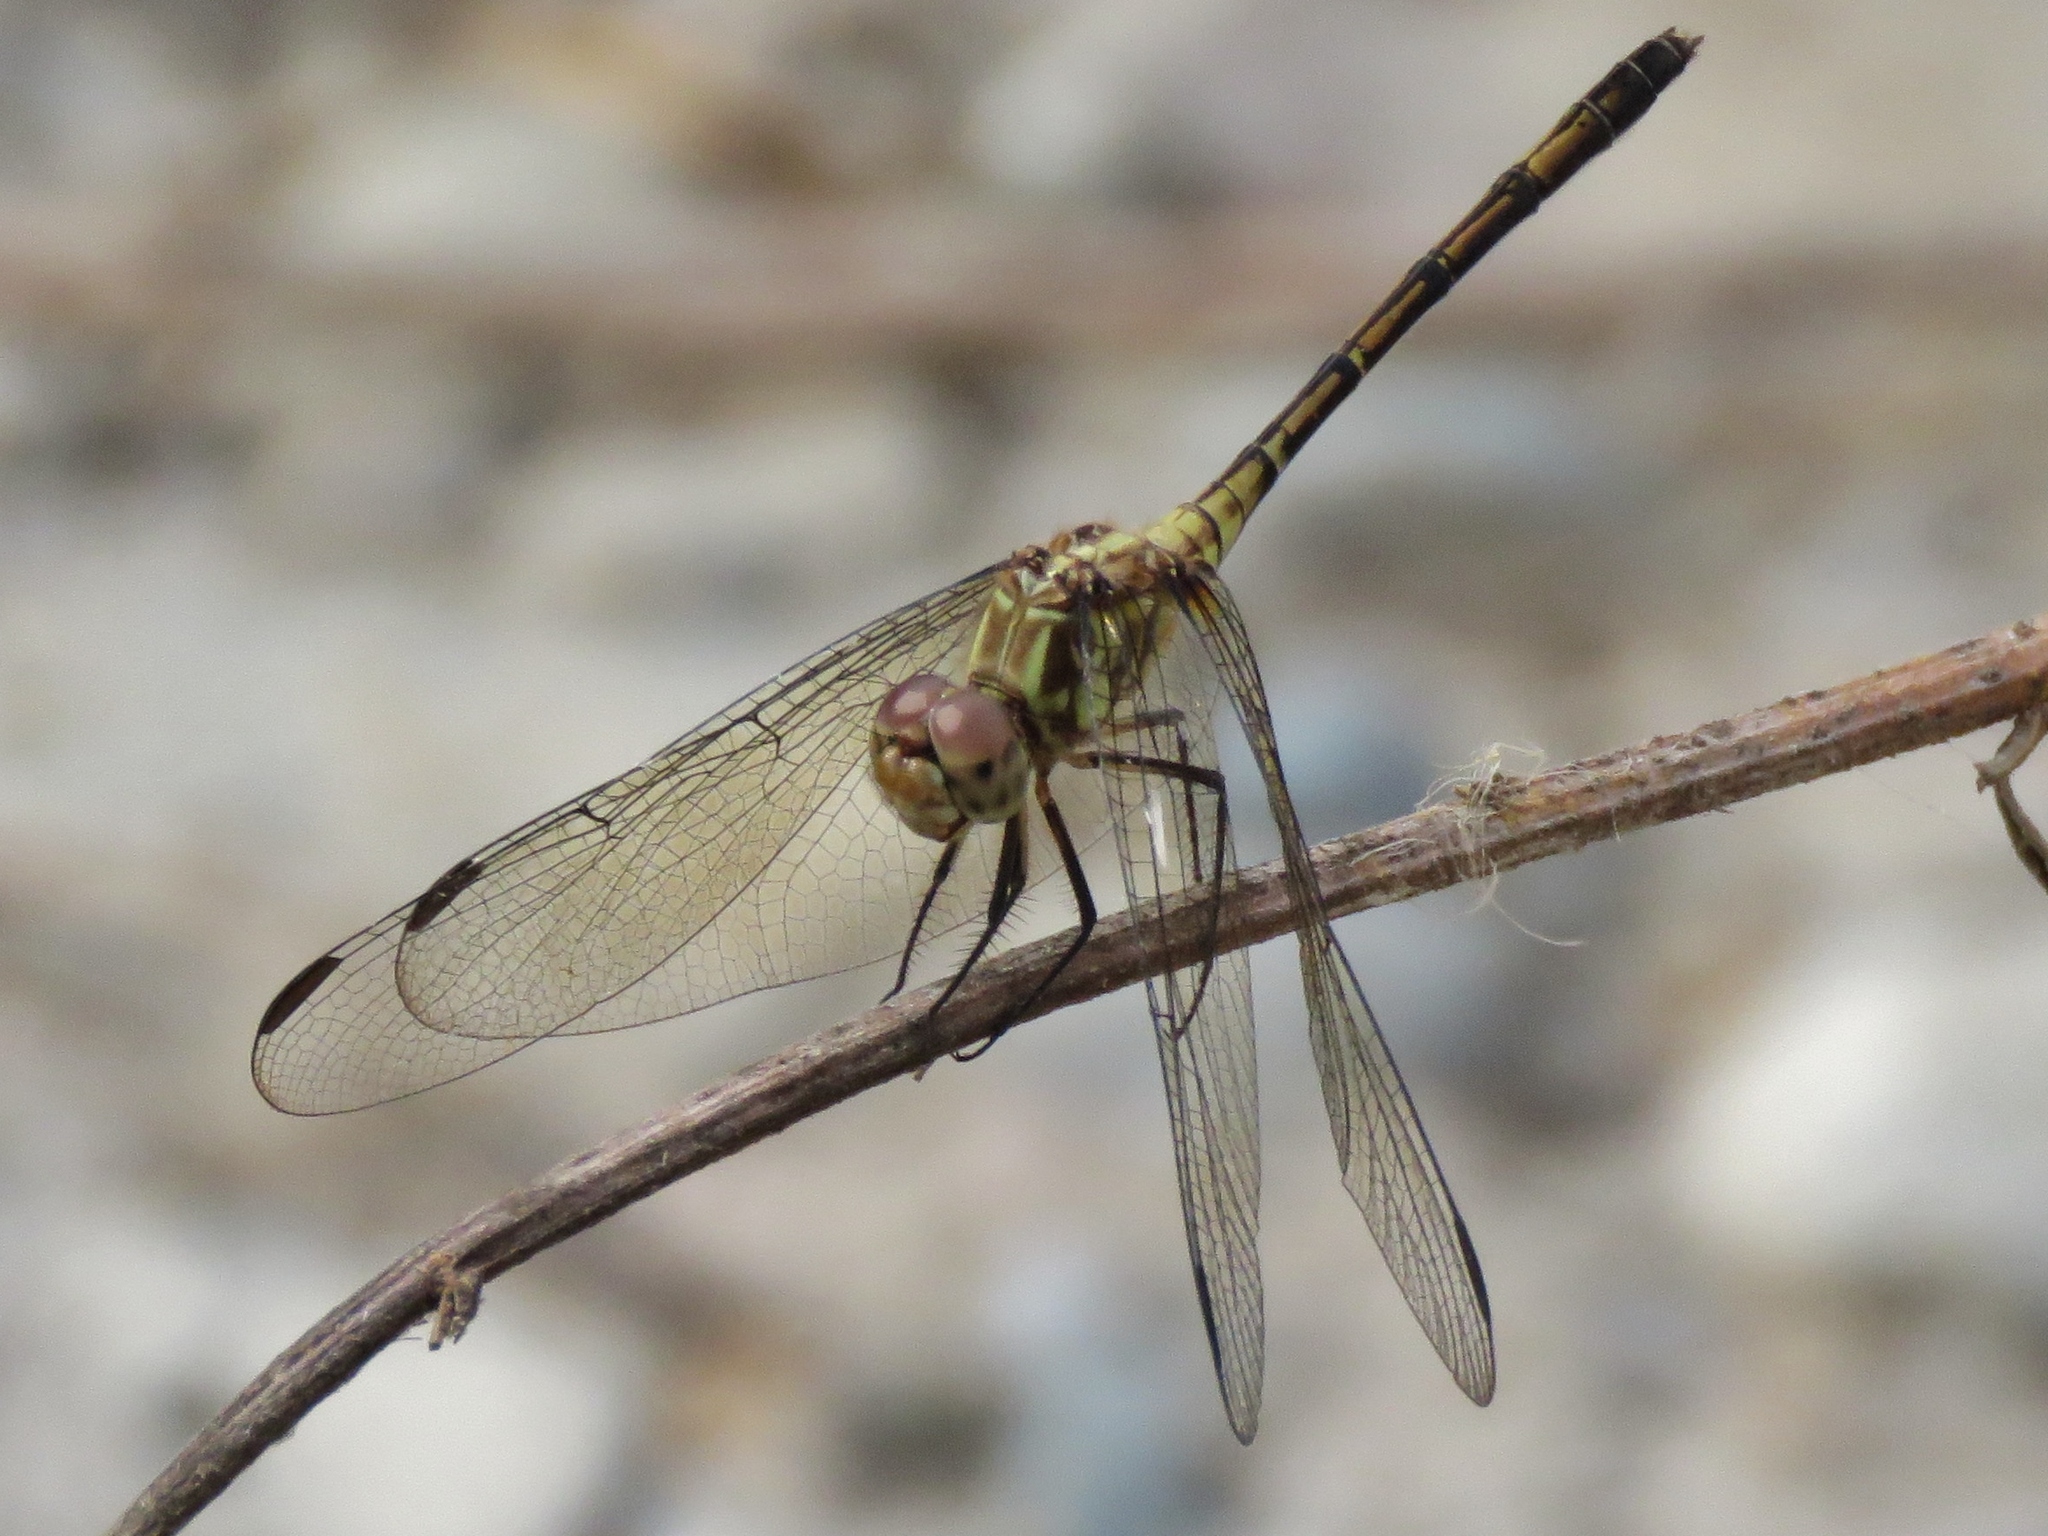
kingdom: Animalia
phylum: Arthropoda
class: Insecta
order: Odonata
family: Libellulidae
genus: Dythemis
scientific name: Dythemis sterilis
